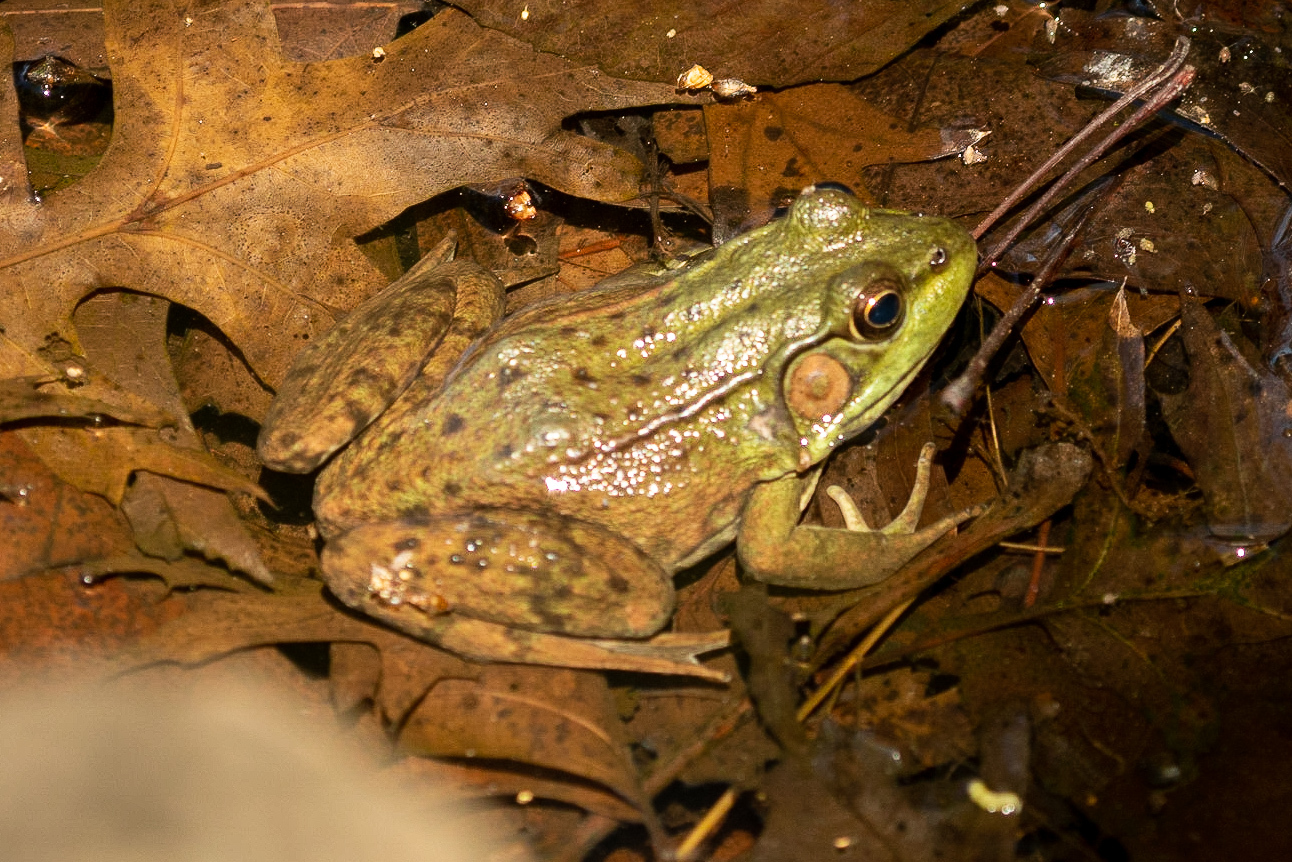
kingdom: Animalia
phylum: Chordata
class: Amphibia
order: Anura
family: Ranidae
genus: Lithobates
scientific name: Lithobates clamitans
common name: Green frog
